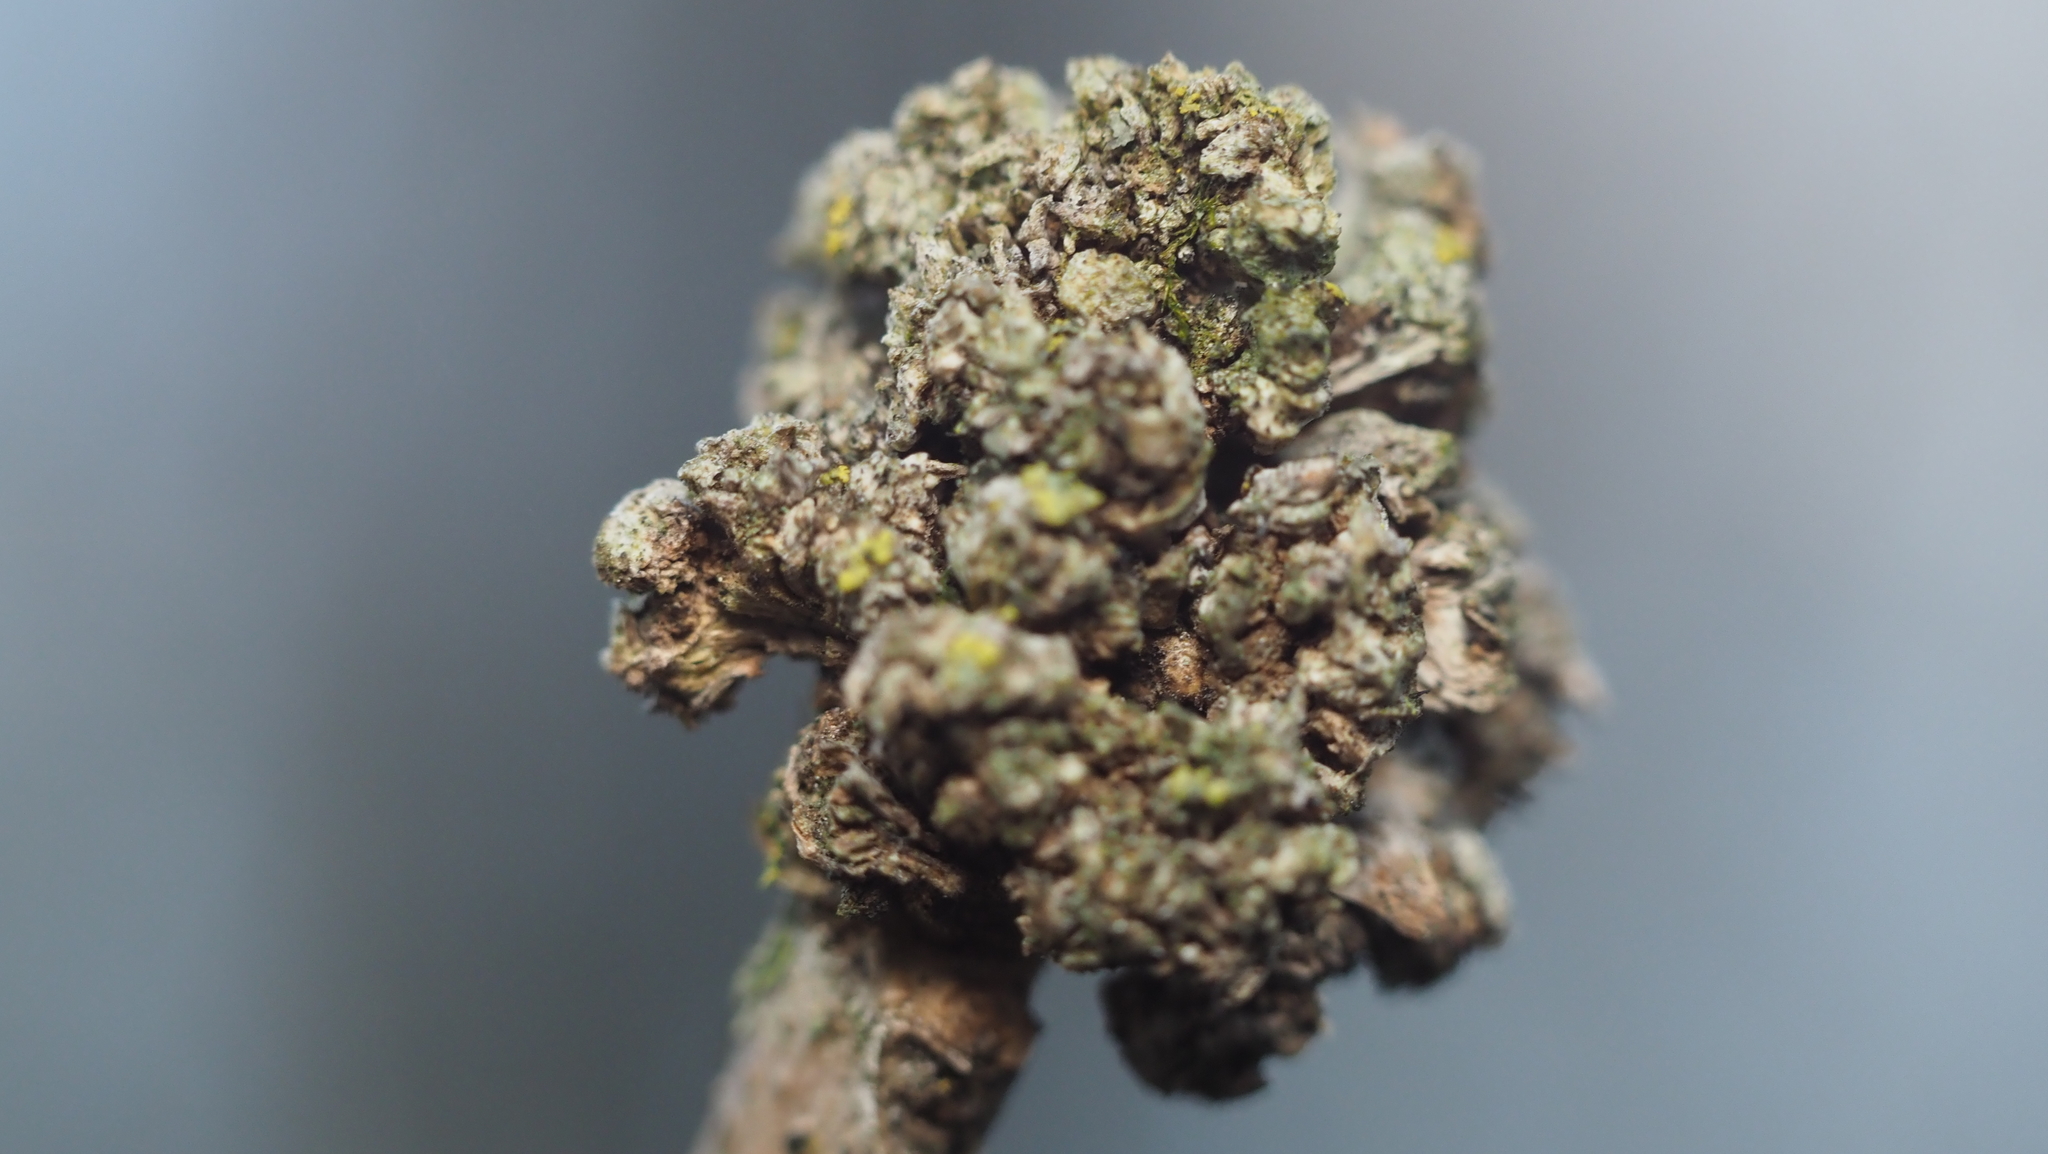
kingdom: Animalia
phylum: Arthropoda
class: Arachnida
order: Trombidiformes
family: Eriophyidae
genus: Aceria
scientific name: Aceria fraxiniflora
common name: Ash flower gall mite
